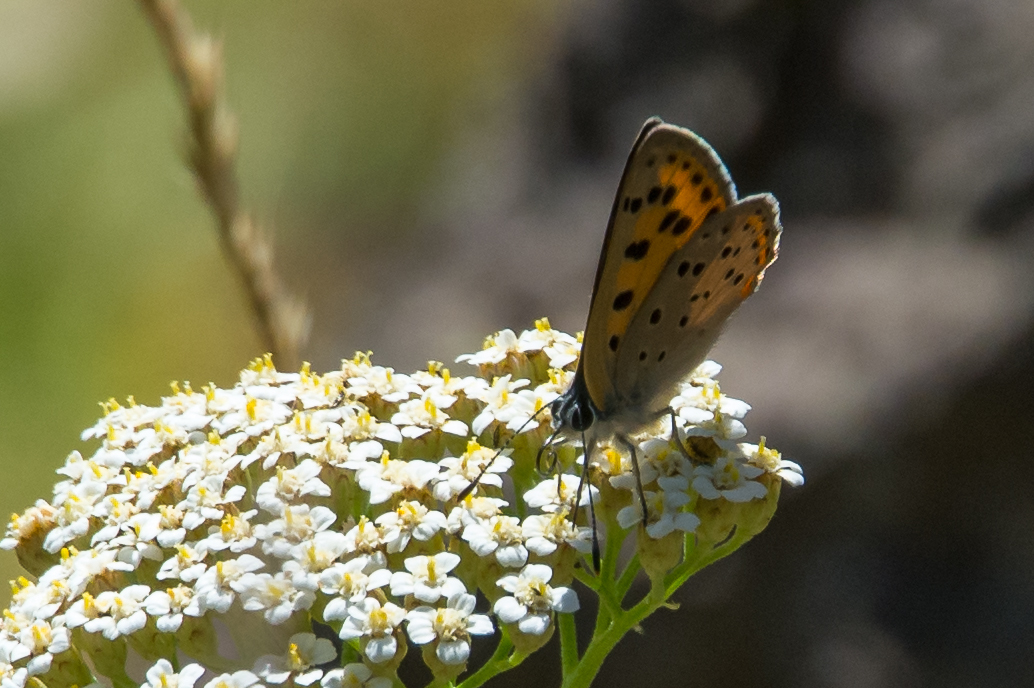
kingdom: Animalia
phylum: Arthropoda
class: Insecta
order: Lepidoptera
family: Lycaenidae
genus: Lycaena
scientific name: Lycaena alciphron
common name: Purple-shot copper
